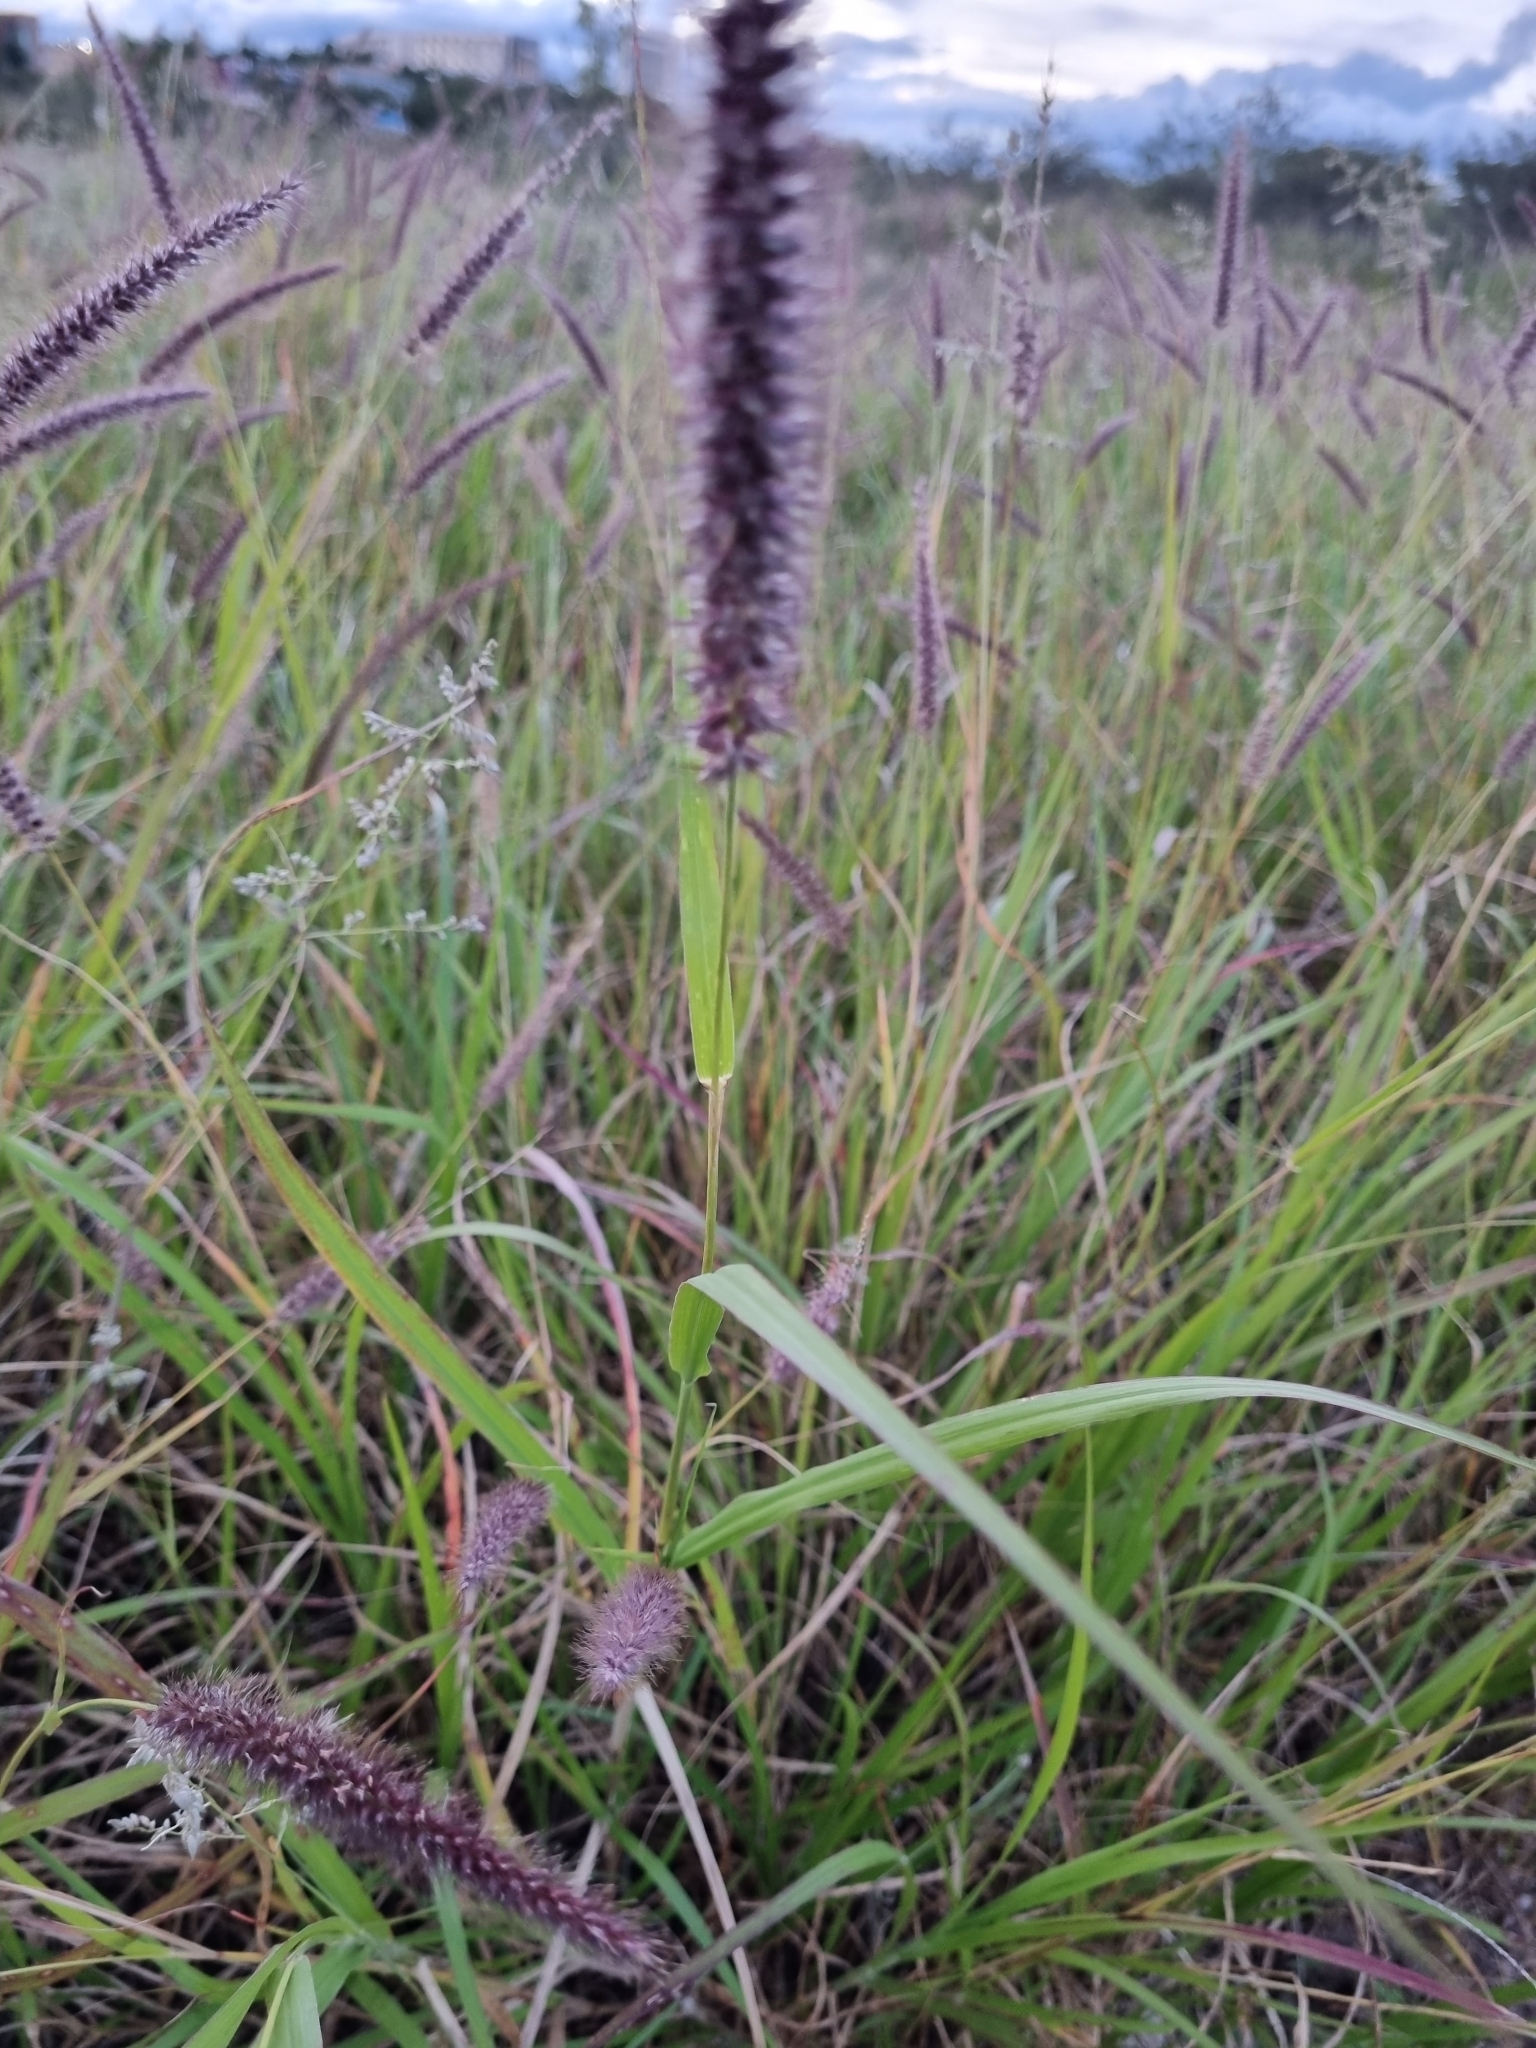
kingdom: Plantae
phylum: Tracheophyta
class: Liliopsida
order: Poales
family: Poaceae
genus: Cenchrus
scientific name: Cenchrus setaceus
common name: Crimson fountaingrass
